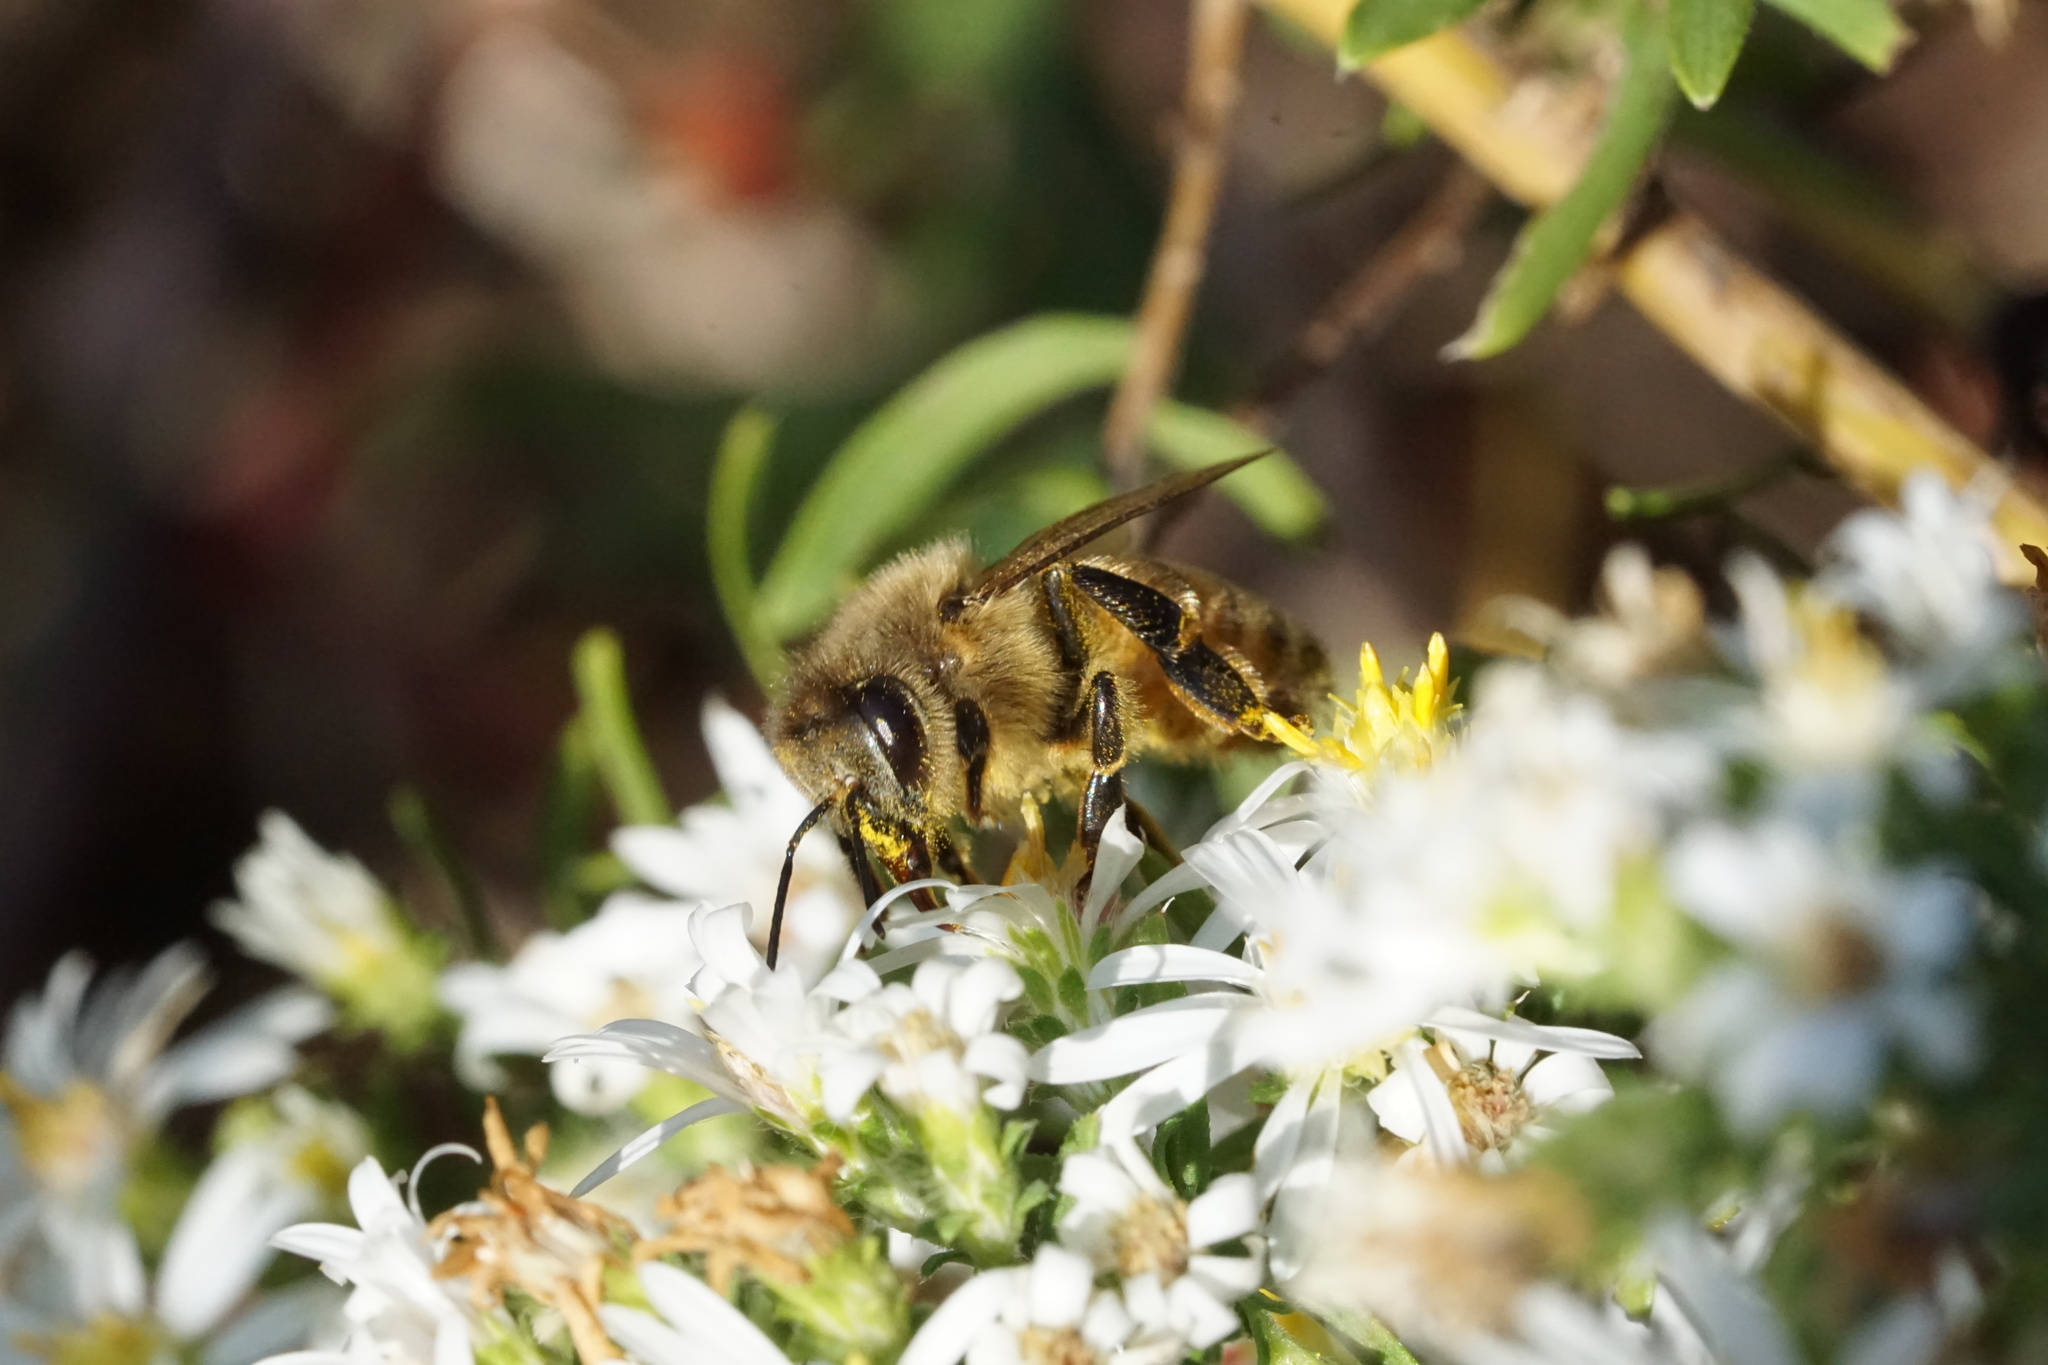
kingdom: Animalia
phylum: Arthropoda
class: Insecta
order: Hymenoptera
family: Apidae
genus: Apis
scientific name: Apis mellifera
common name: Honey bee
